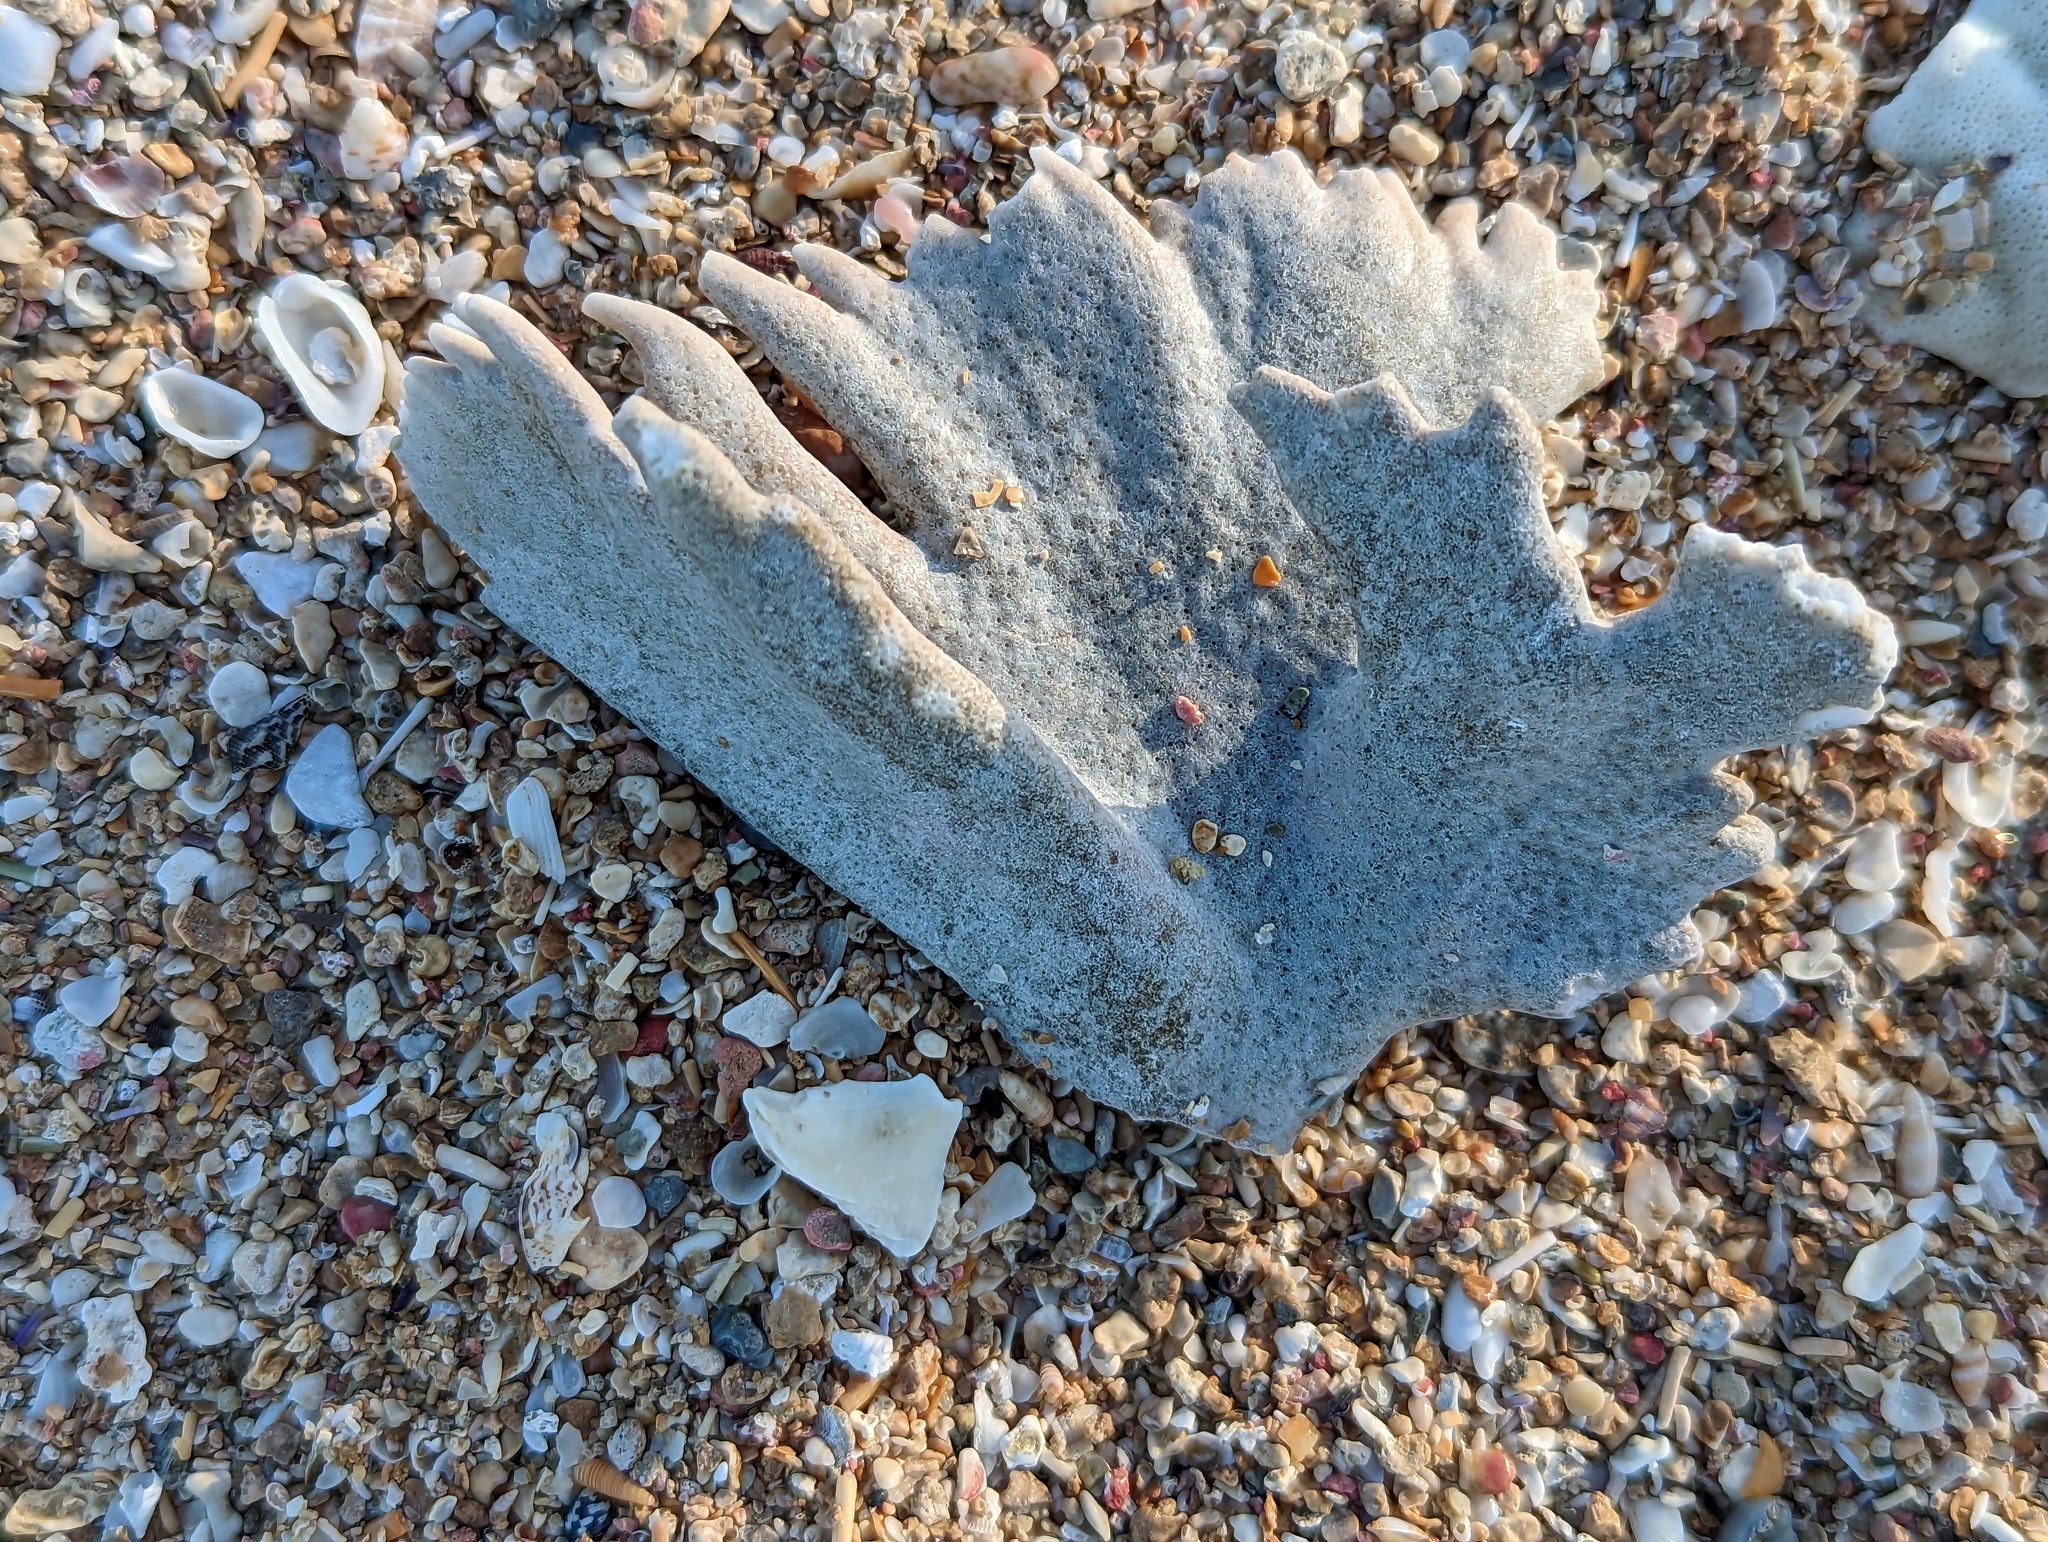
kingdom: Animalia
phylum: Cnidaria
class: Anthozoa
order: Scleractinia
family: Acroporidae
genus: Acropora
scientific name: Acropora palmata
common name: Elkhorn coral
